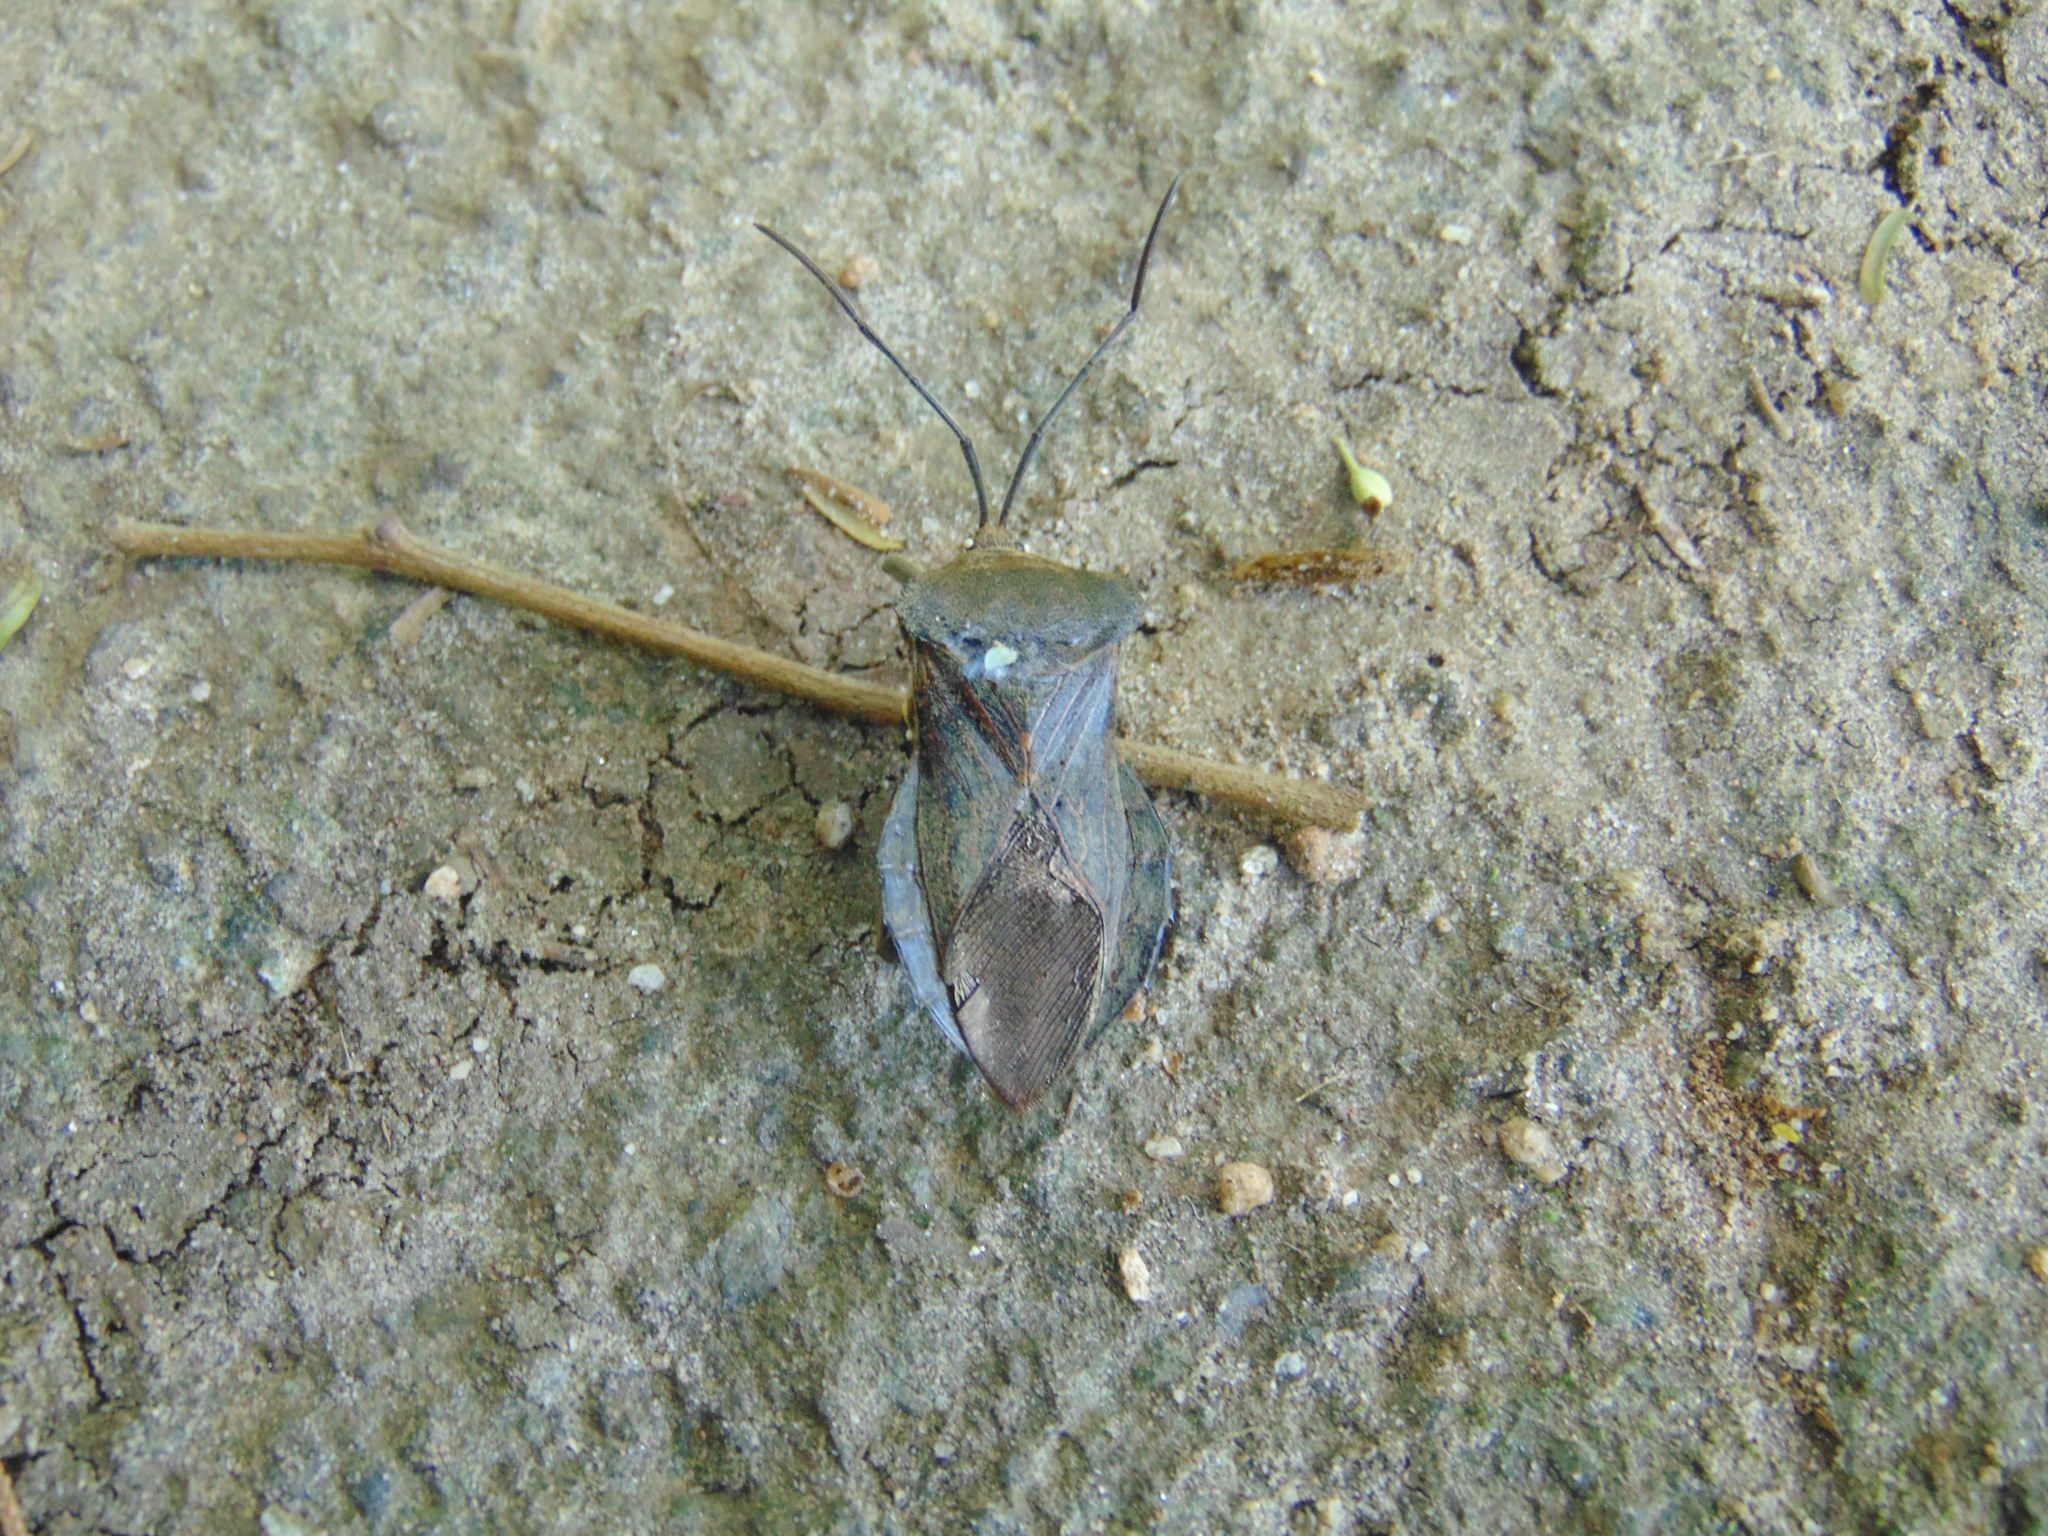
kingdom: Animalia
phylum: Arthropoda
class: Insecta
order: Hemiptera
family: Coreidae
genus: Pachylis
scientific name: Pachylis bipunctatus
